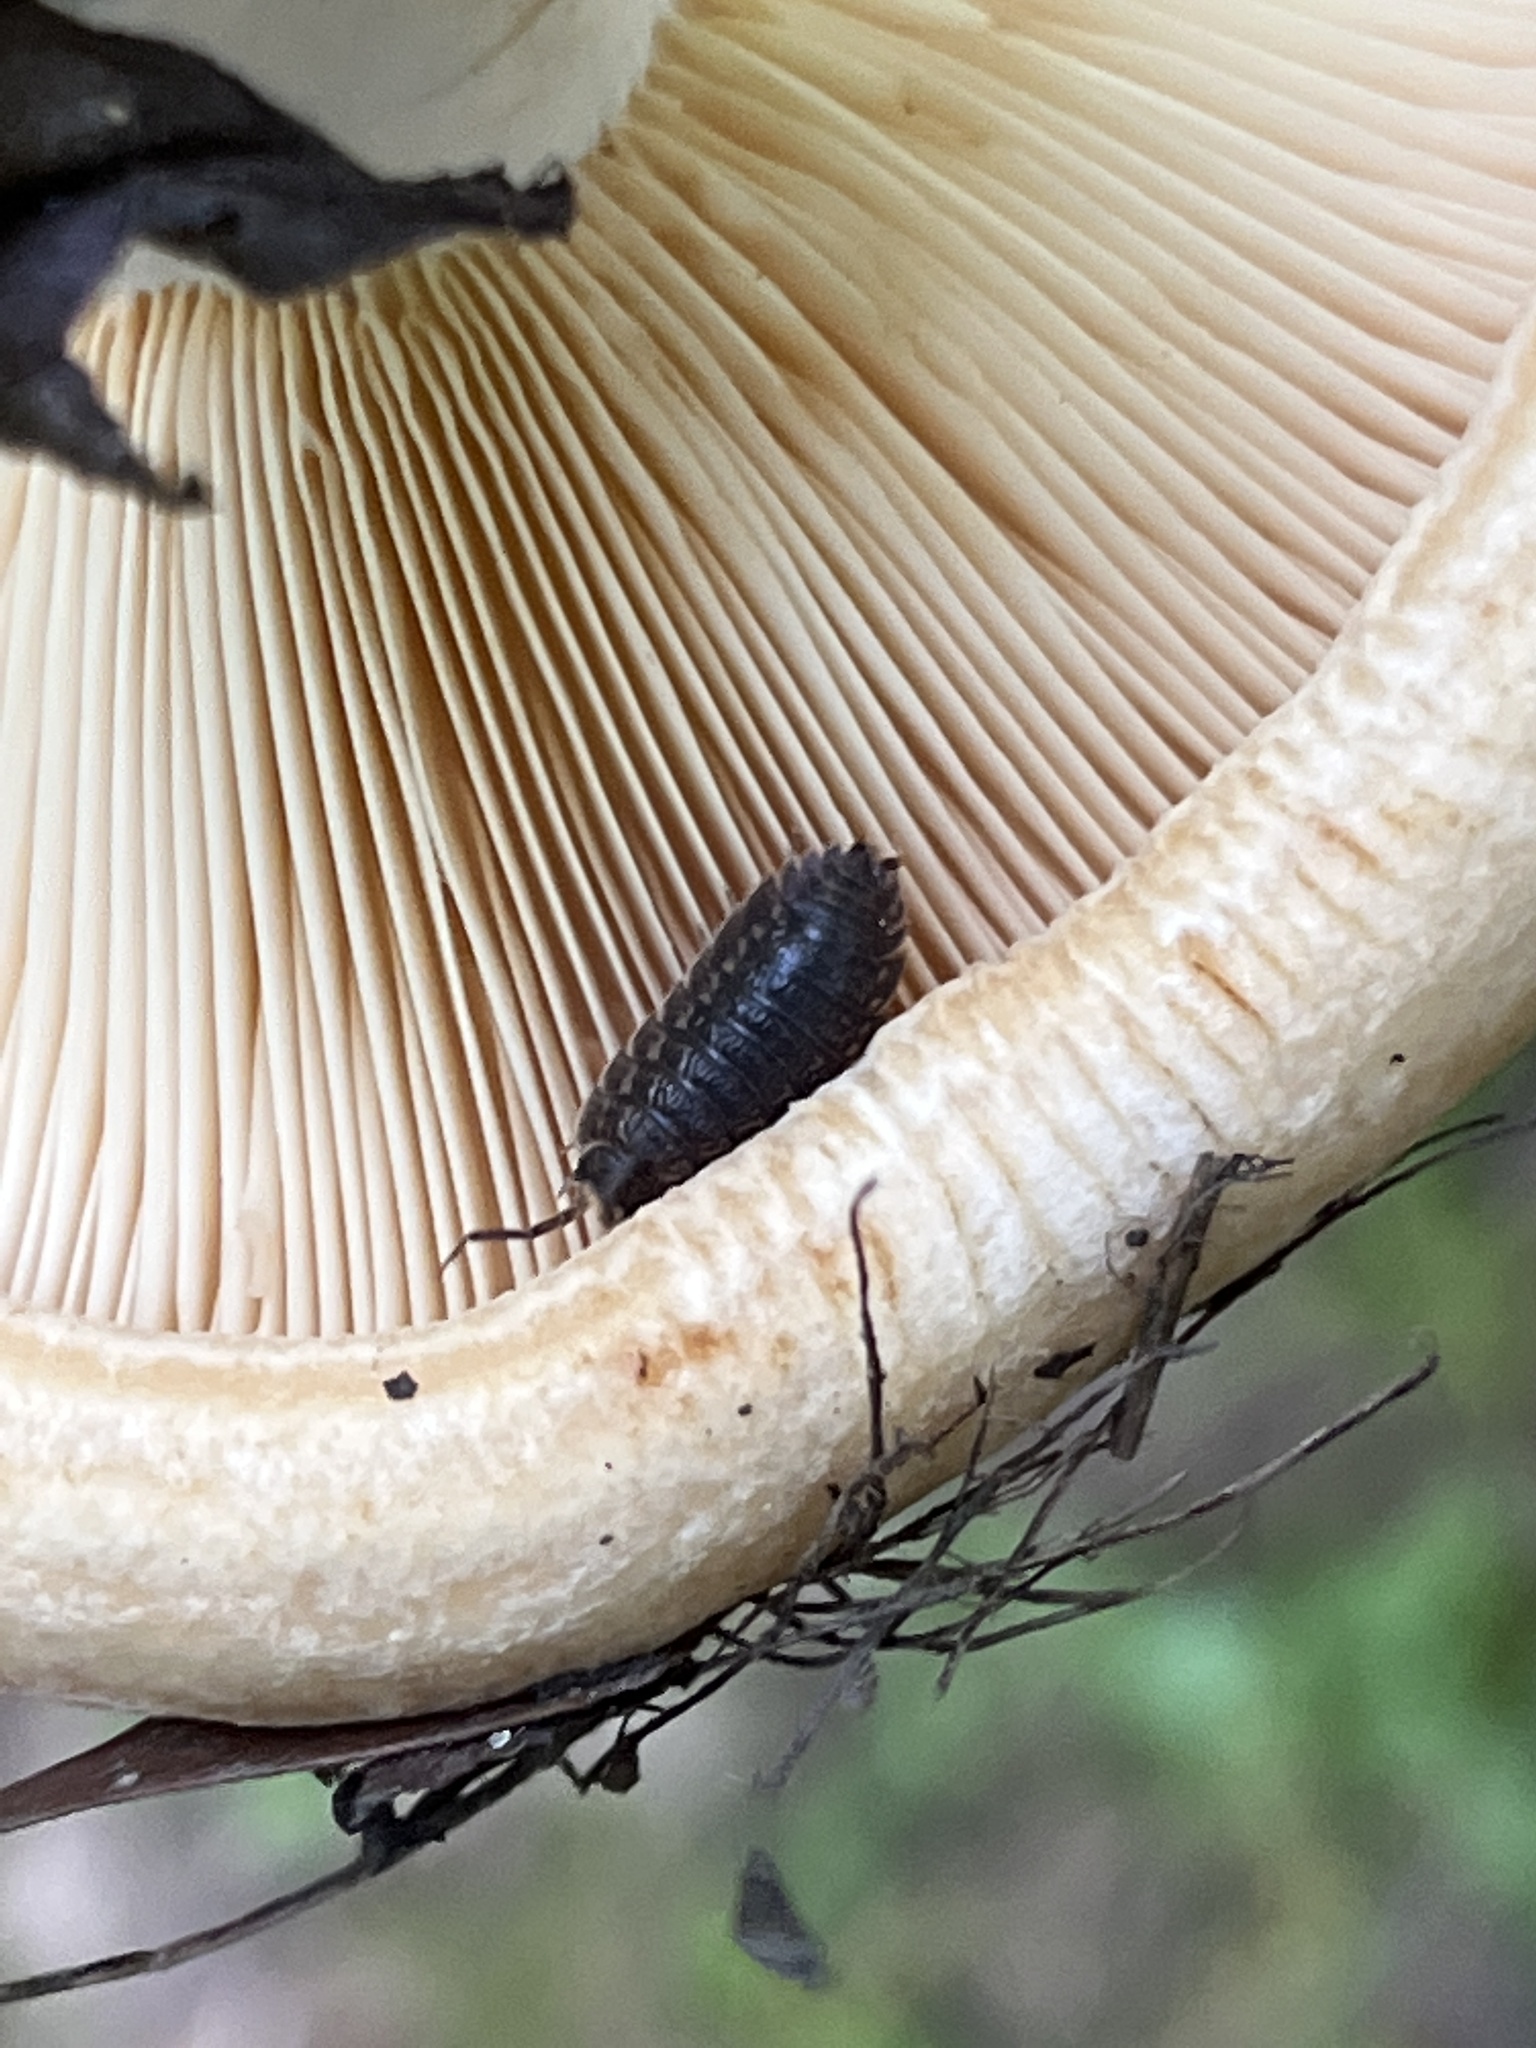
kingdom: Animalia
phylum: Arthropoda
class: Malacostraca
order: Isopoda
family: Trachelipodidae
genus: Trachelipus
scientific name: Trachelipus rathkii
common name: Isopod
